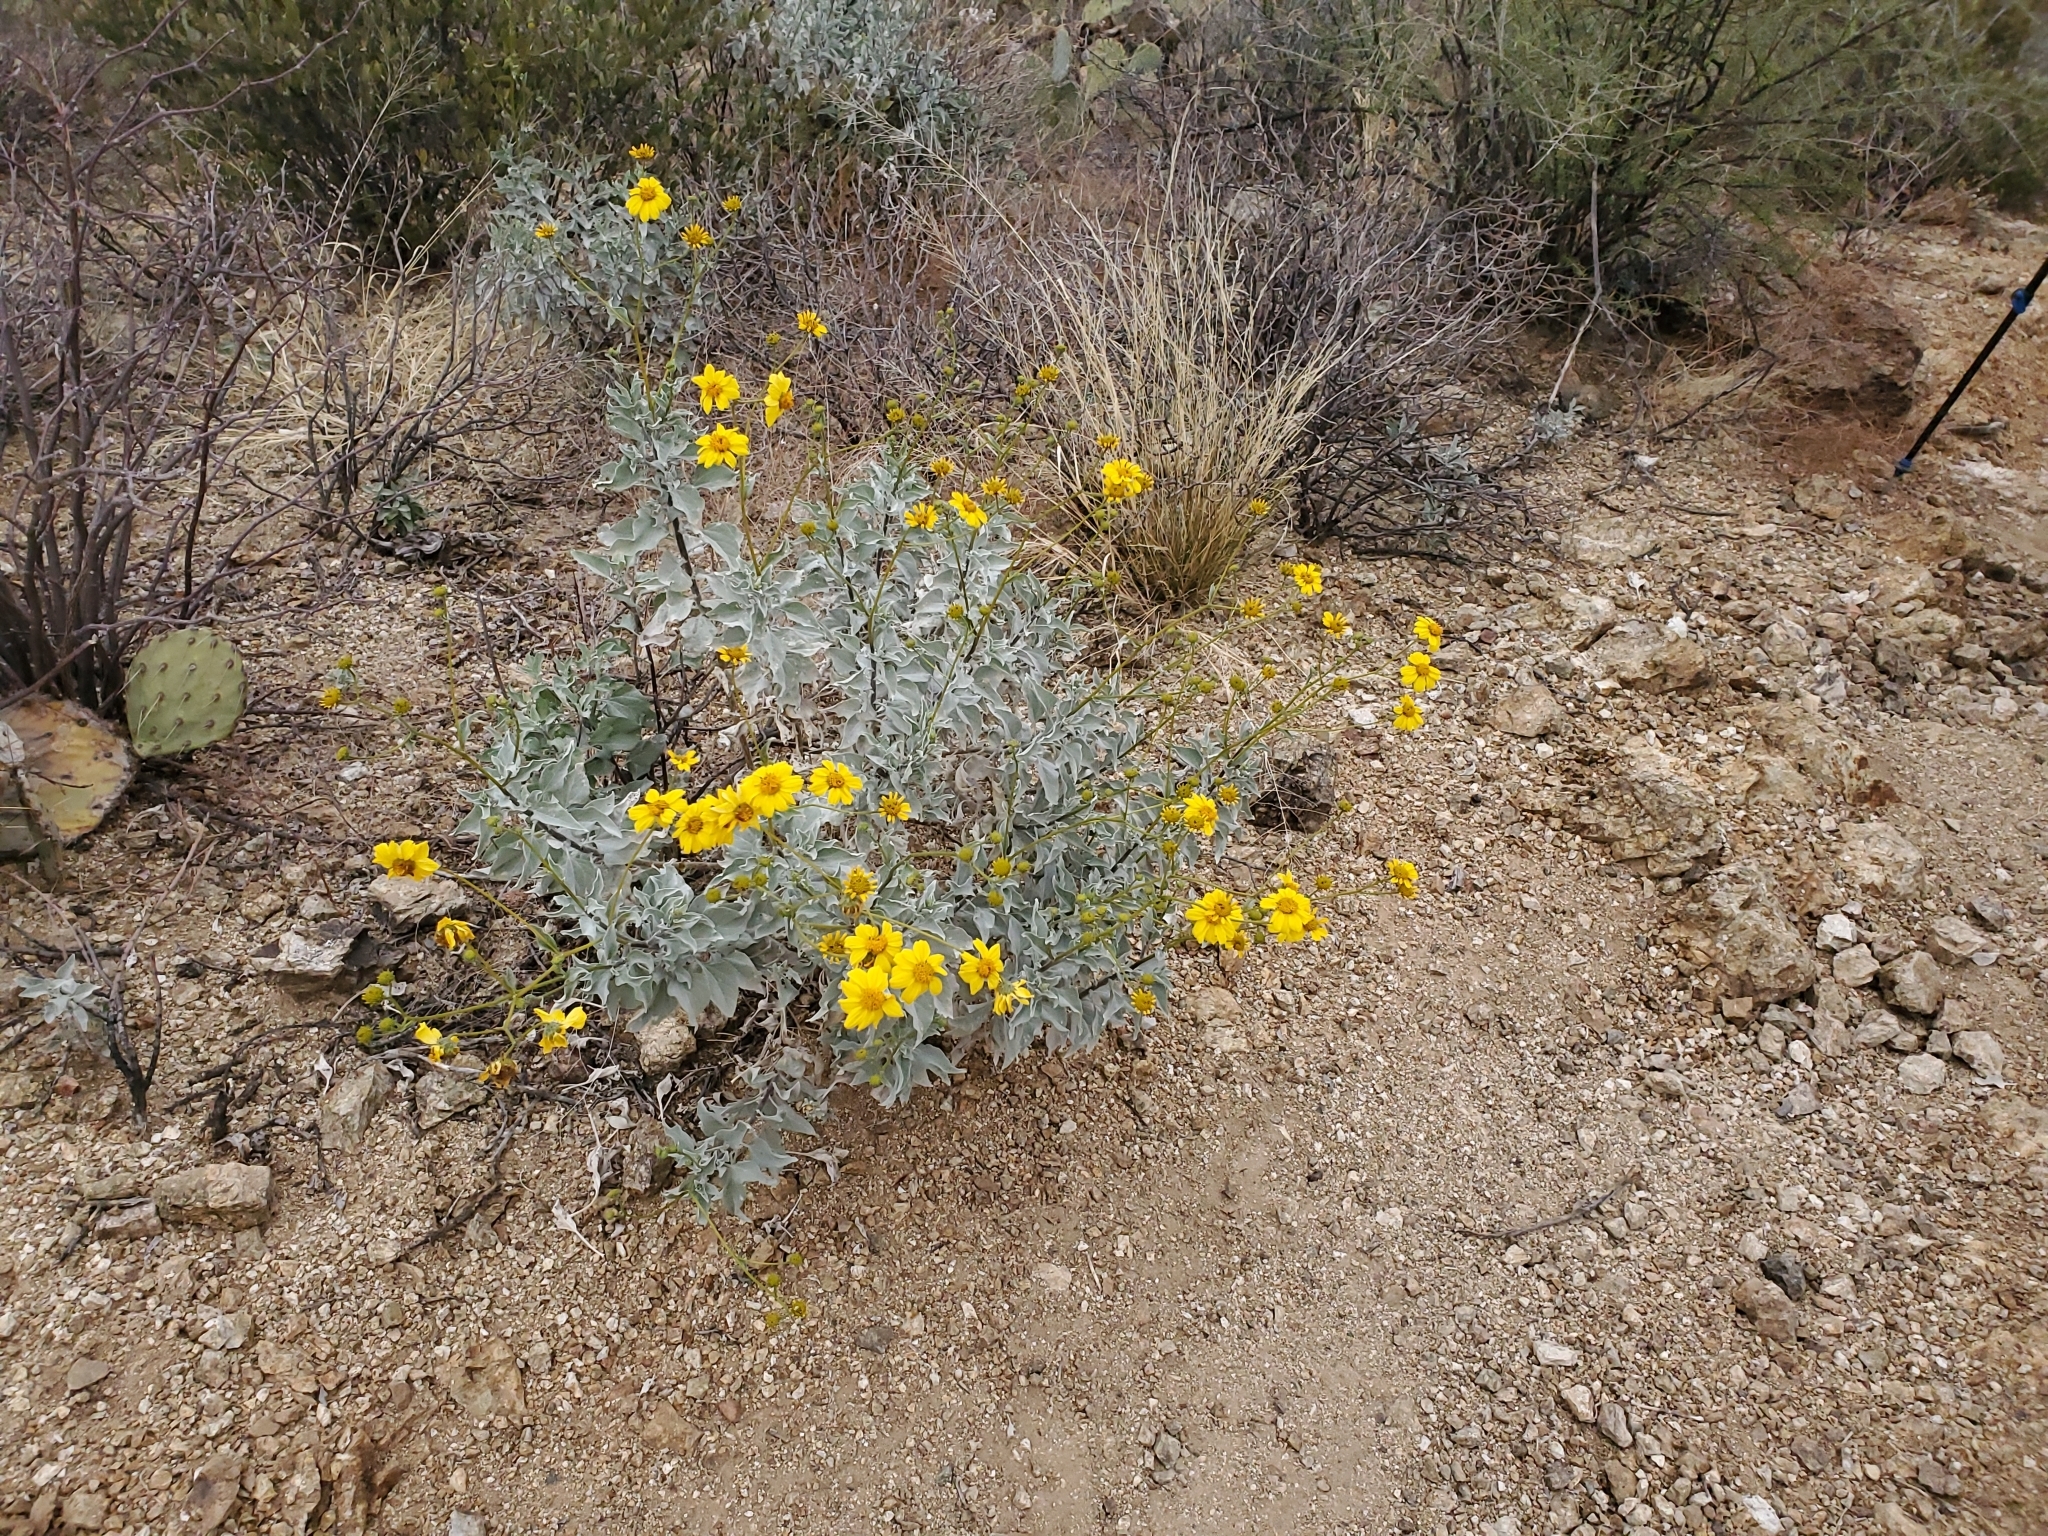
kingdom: Plantae
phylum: Tracheophyta
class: Magnoliopsida
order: Asterales
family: Asteraceae
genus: Encelia
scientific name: Encelia farinosa
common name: Brittlebush
